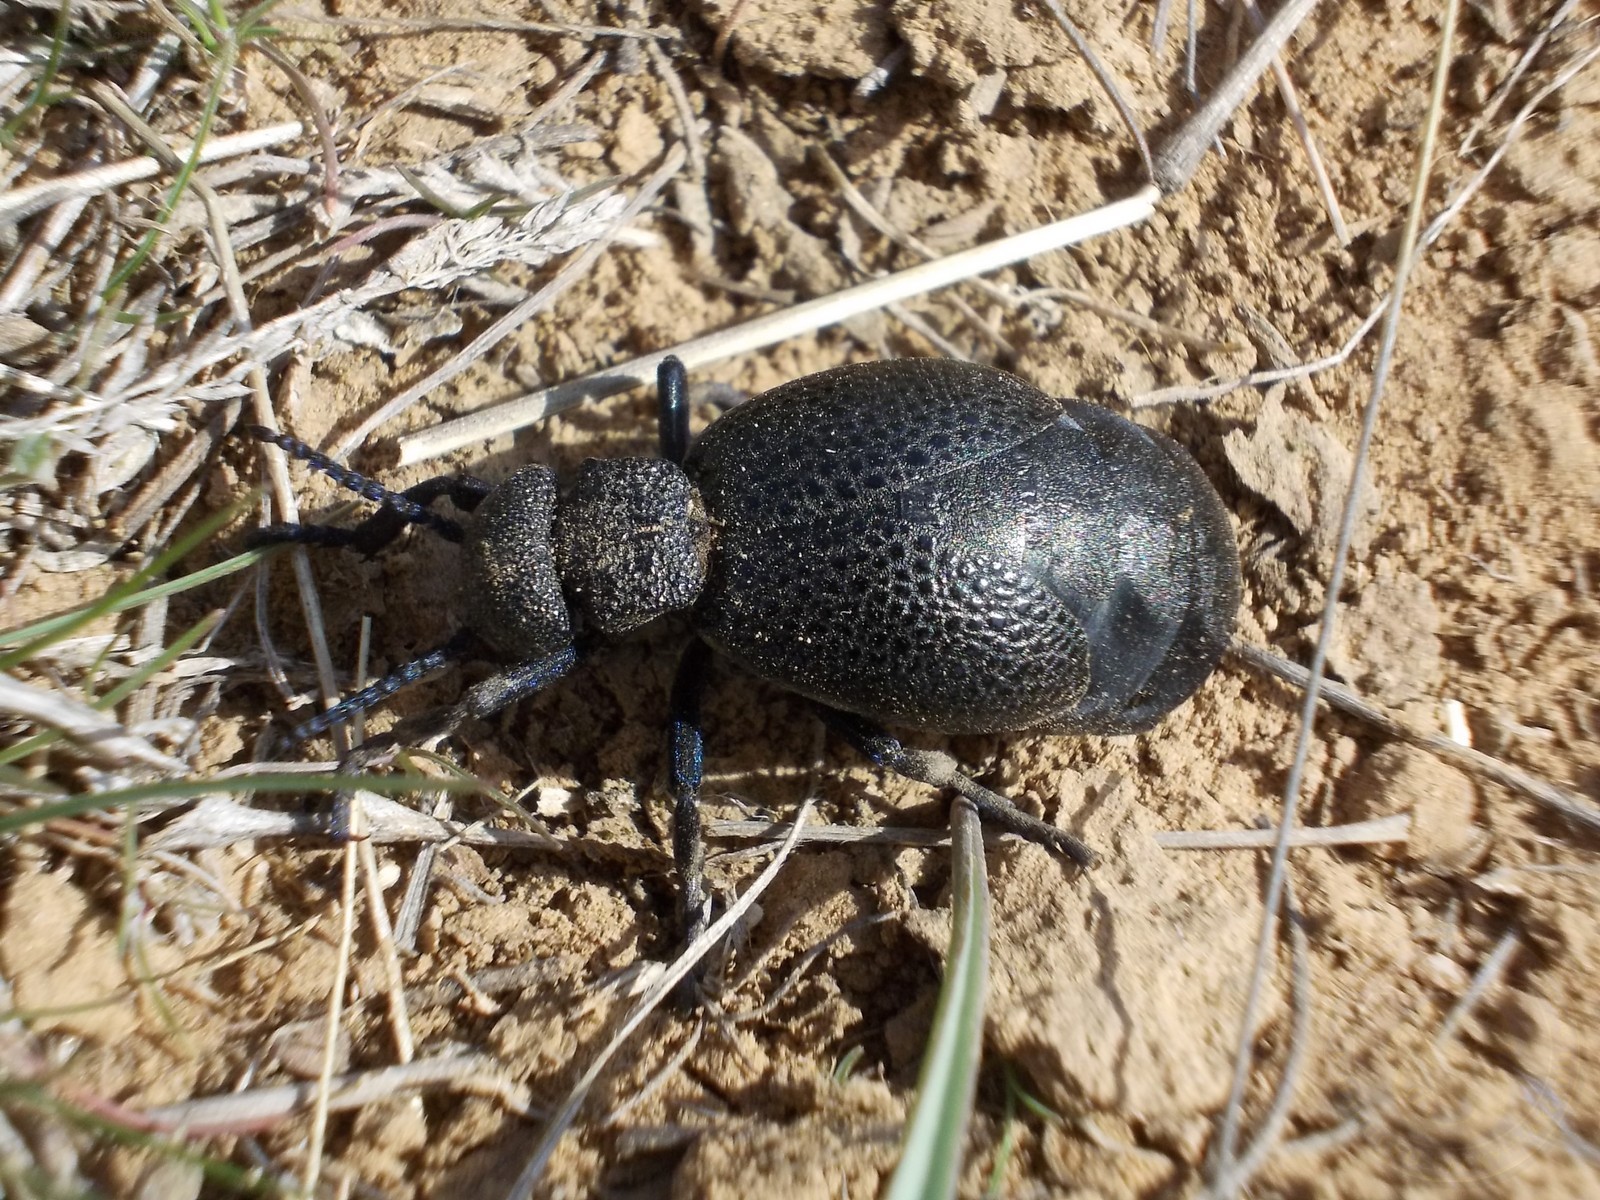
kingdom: Animalia
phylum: Arthropoda
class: Insecta
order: Coleoptera
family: Meloidae
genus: Meloe
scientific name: Meloe cicatricosus
